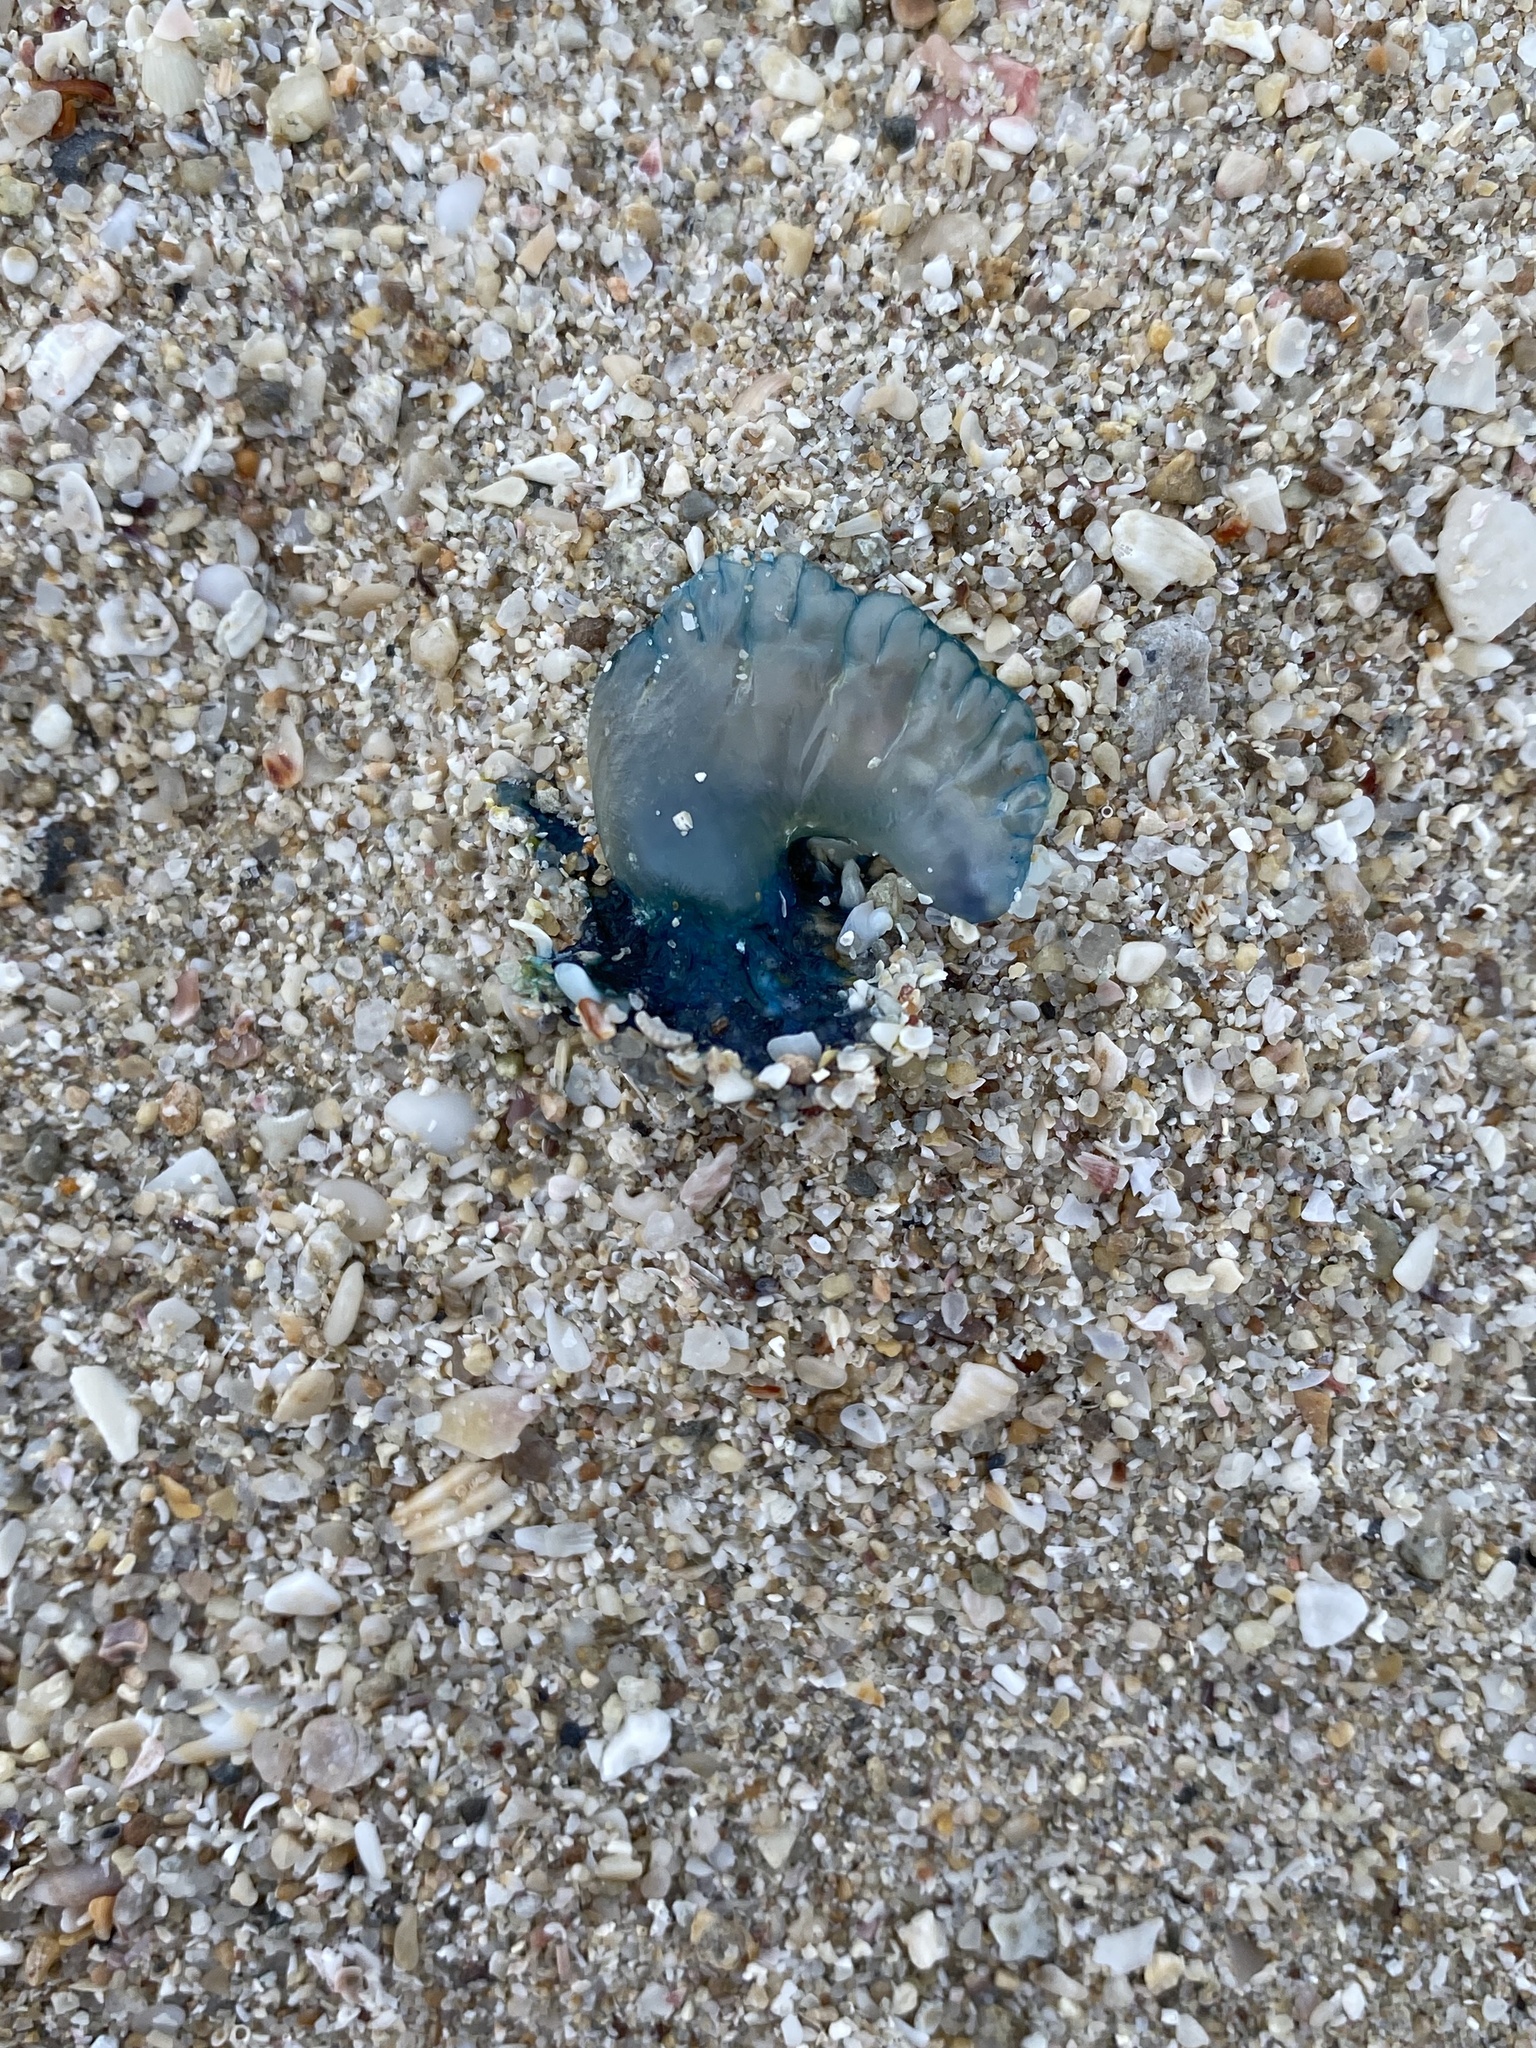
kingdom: Animalia
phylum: Cnidaria
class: Hydrozoa
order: Siphonophorae
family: Physaliidae
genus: Physalia
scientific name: Physalia physalis
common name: Portuguese man-of-war
